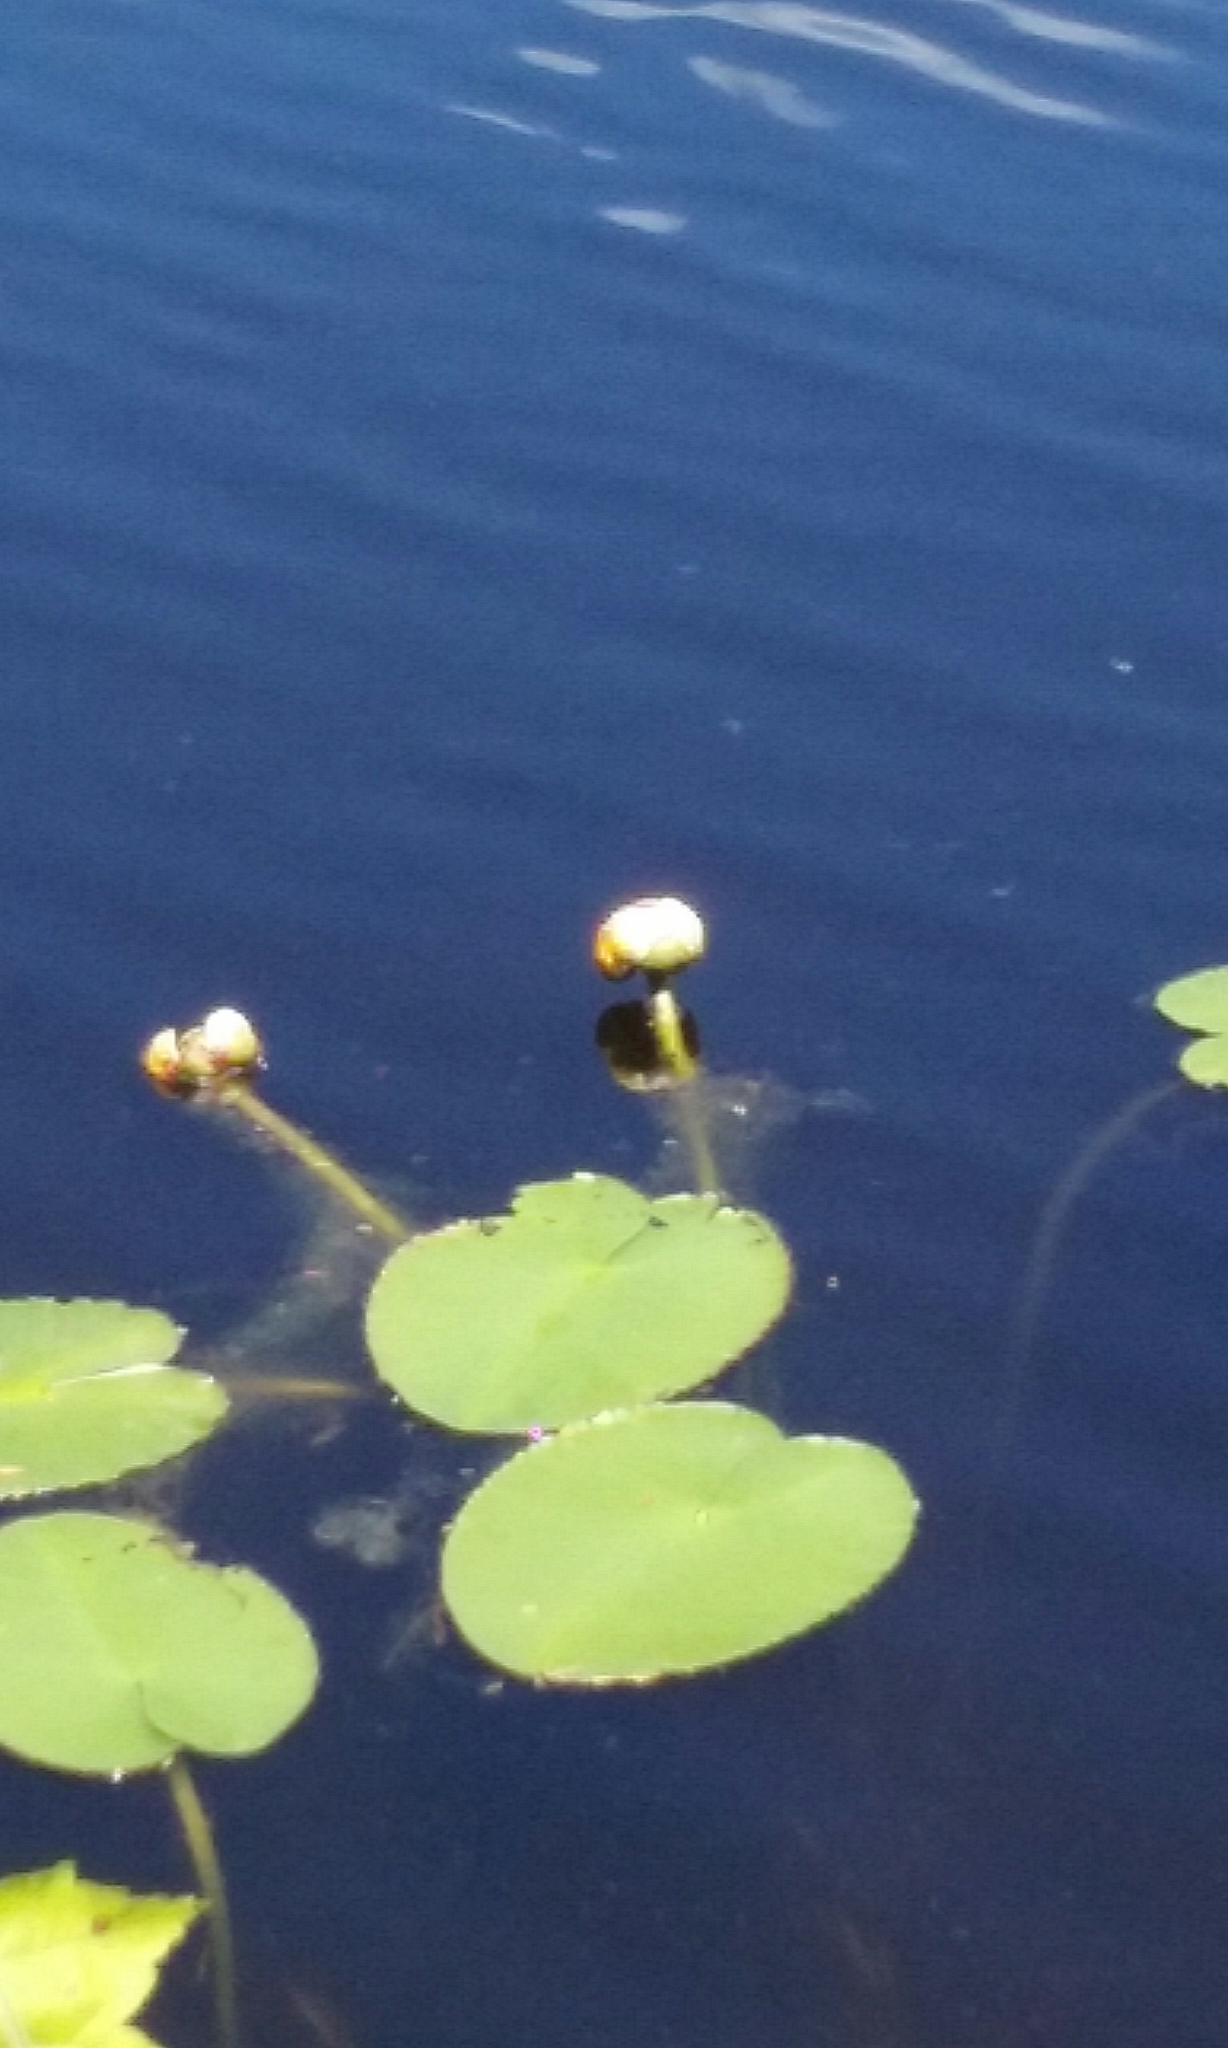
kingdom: Plantae
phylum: Tracheophyta
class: Magnoliopsida
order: Nymphaeales
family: Nymphaeaceae
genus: Nuphar
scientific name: Nuphar variegata
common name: Beaver-root
